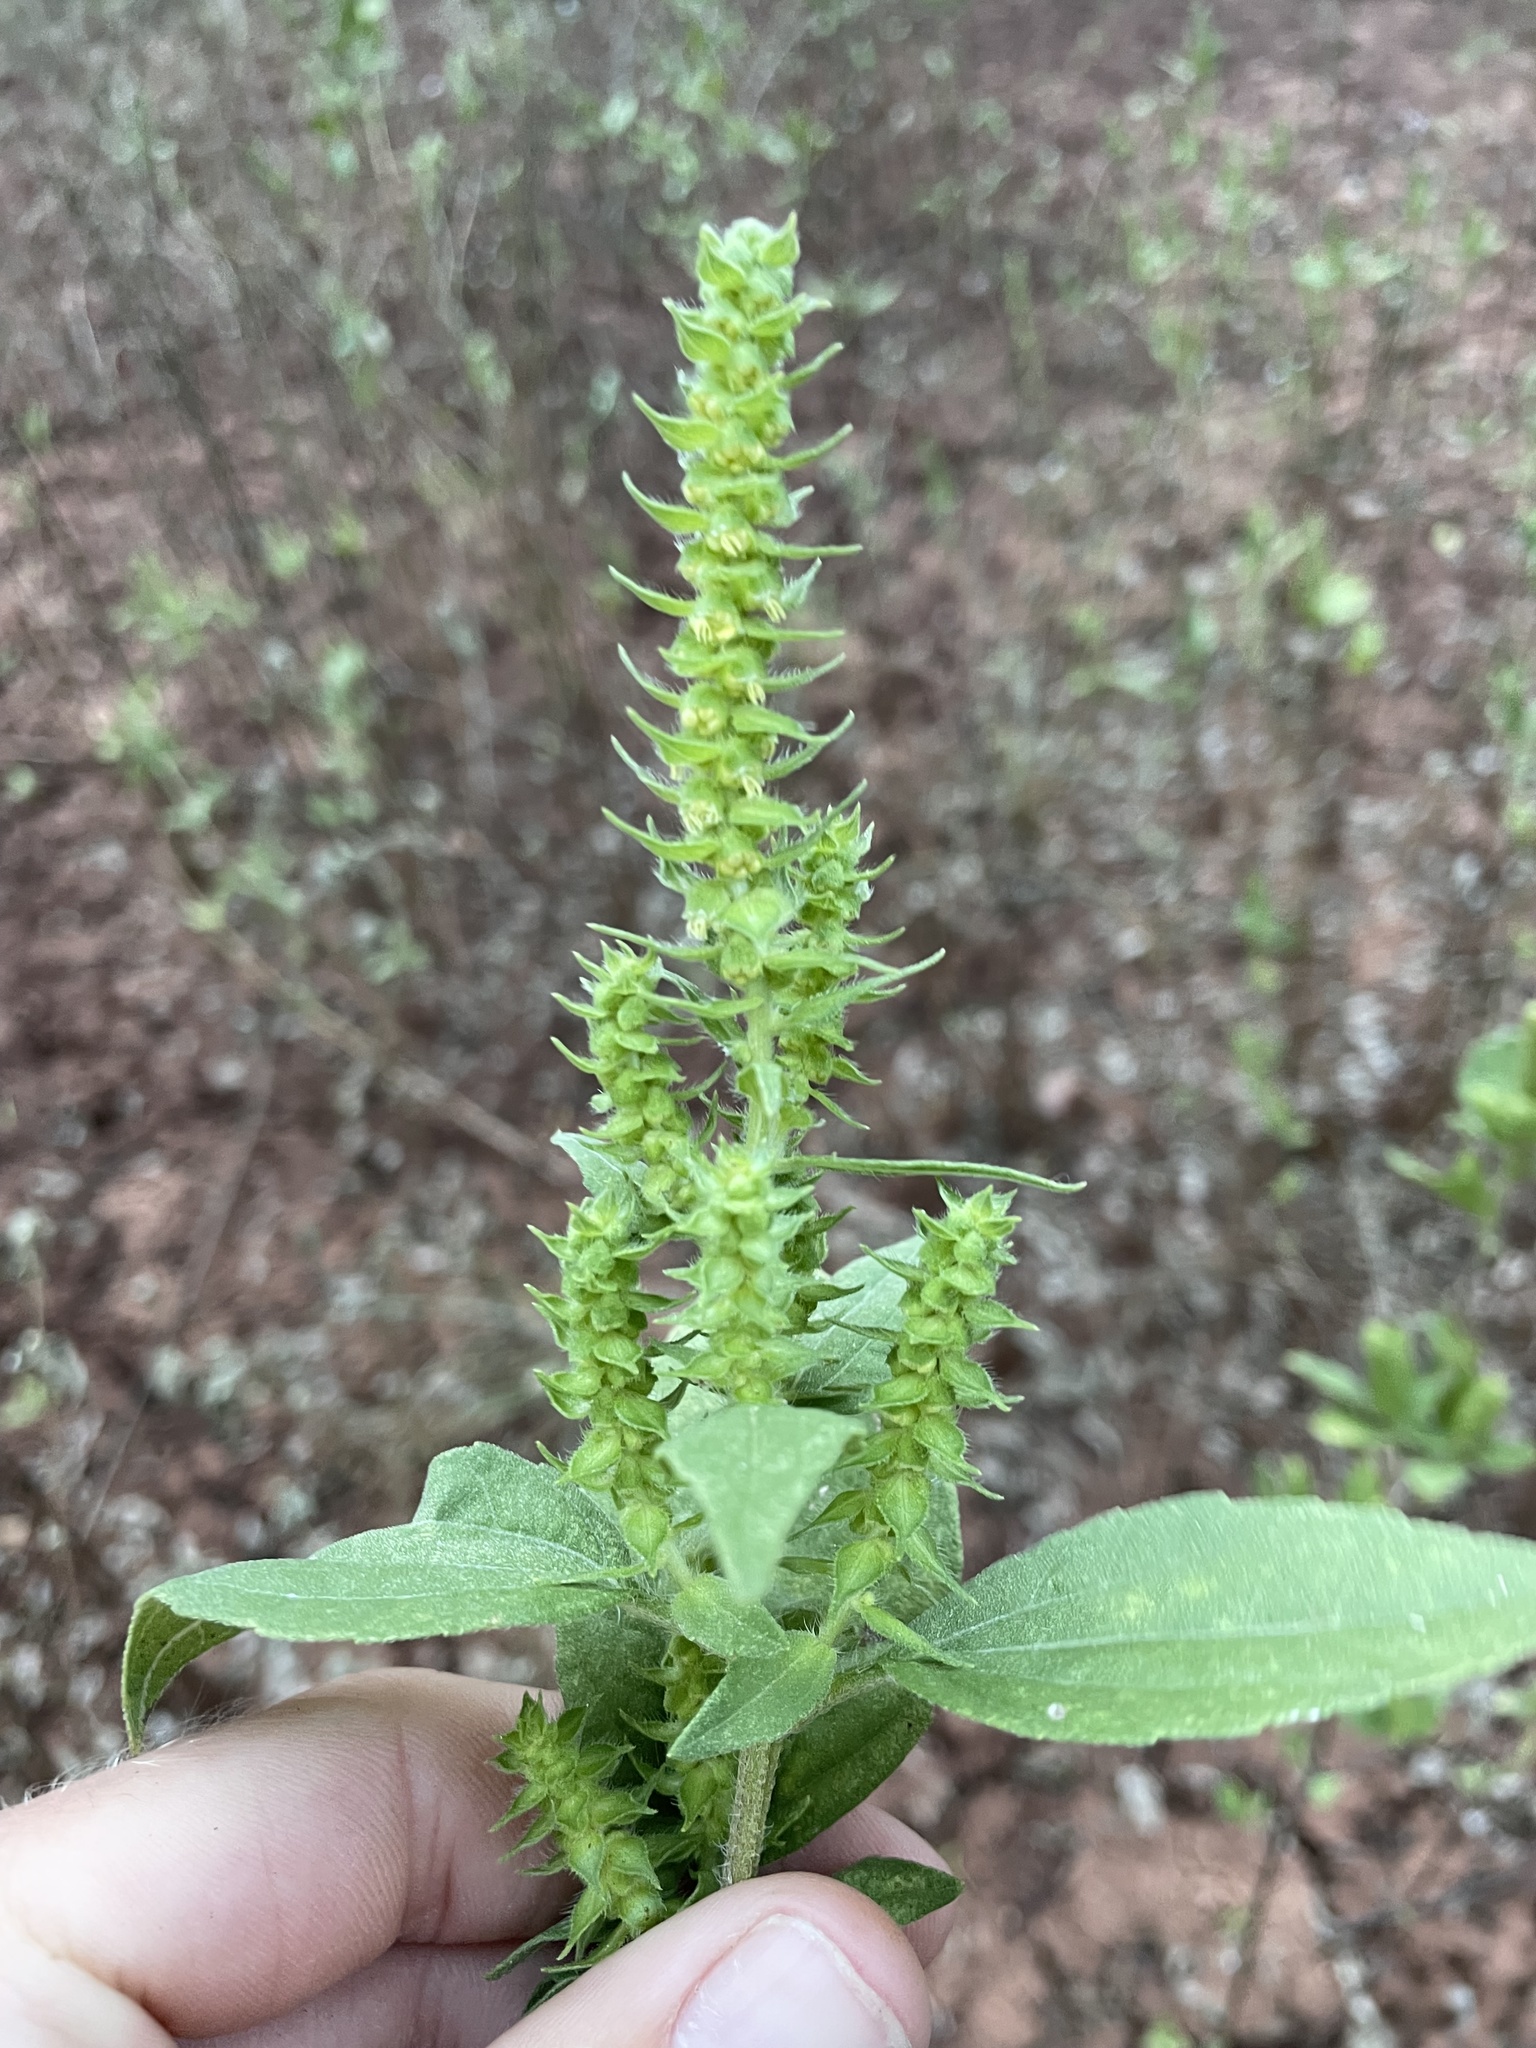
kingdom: Plantae
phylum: Tracheophyta
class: Magnoliopsida
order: Asterales
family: Asteraceae
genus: Iva
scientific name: Iva annua
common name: Marsh-elder
